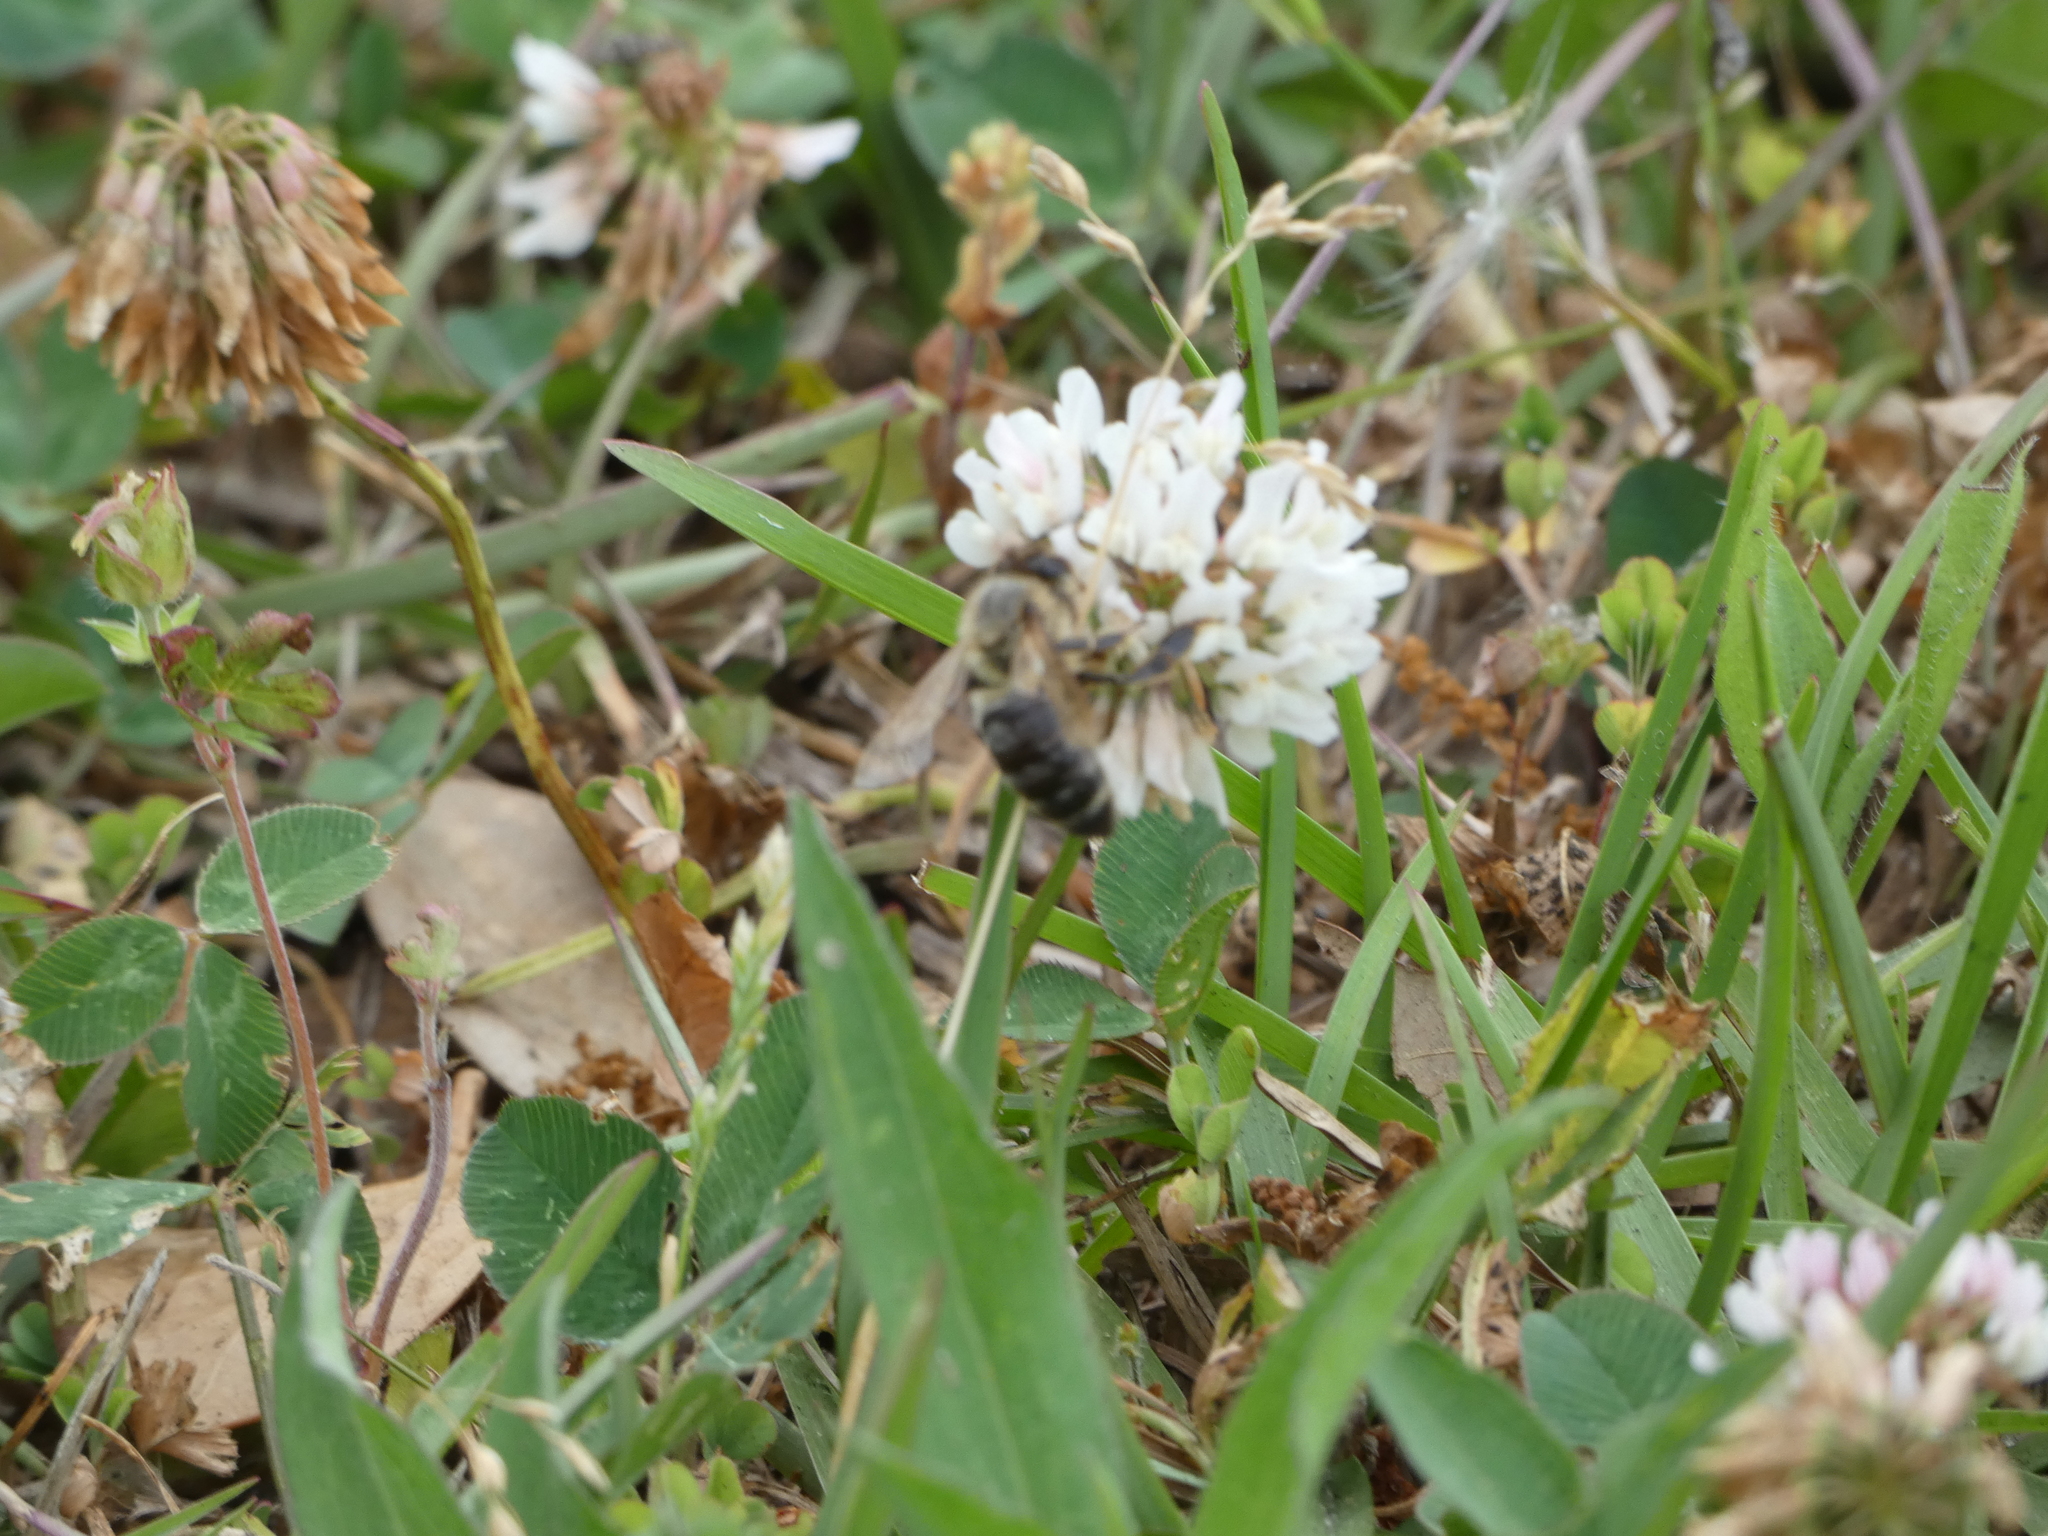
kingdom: Animalia
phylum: Arthropoda
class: Insecta
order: Hymenoptera
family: Apidae
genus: Apis
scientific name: Apis mellifera
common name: Honey bee
